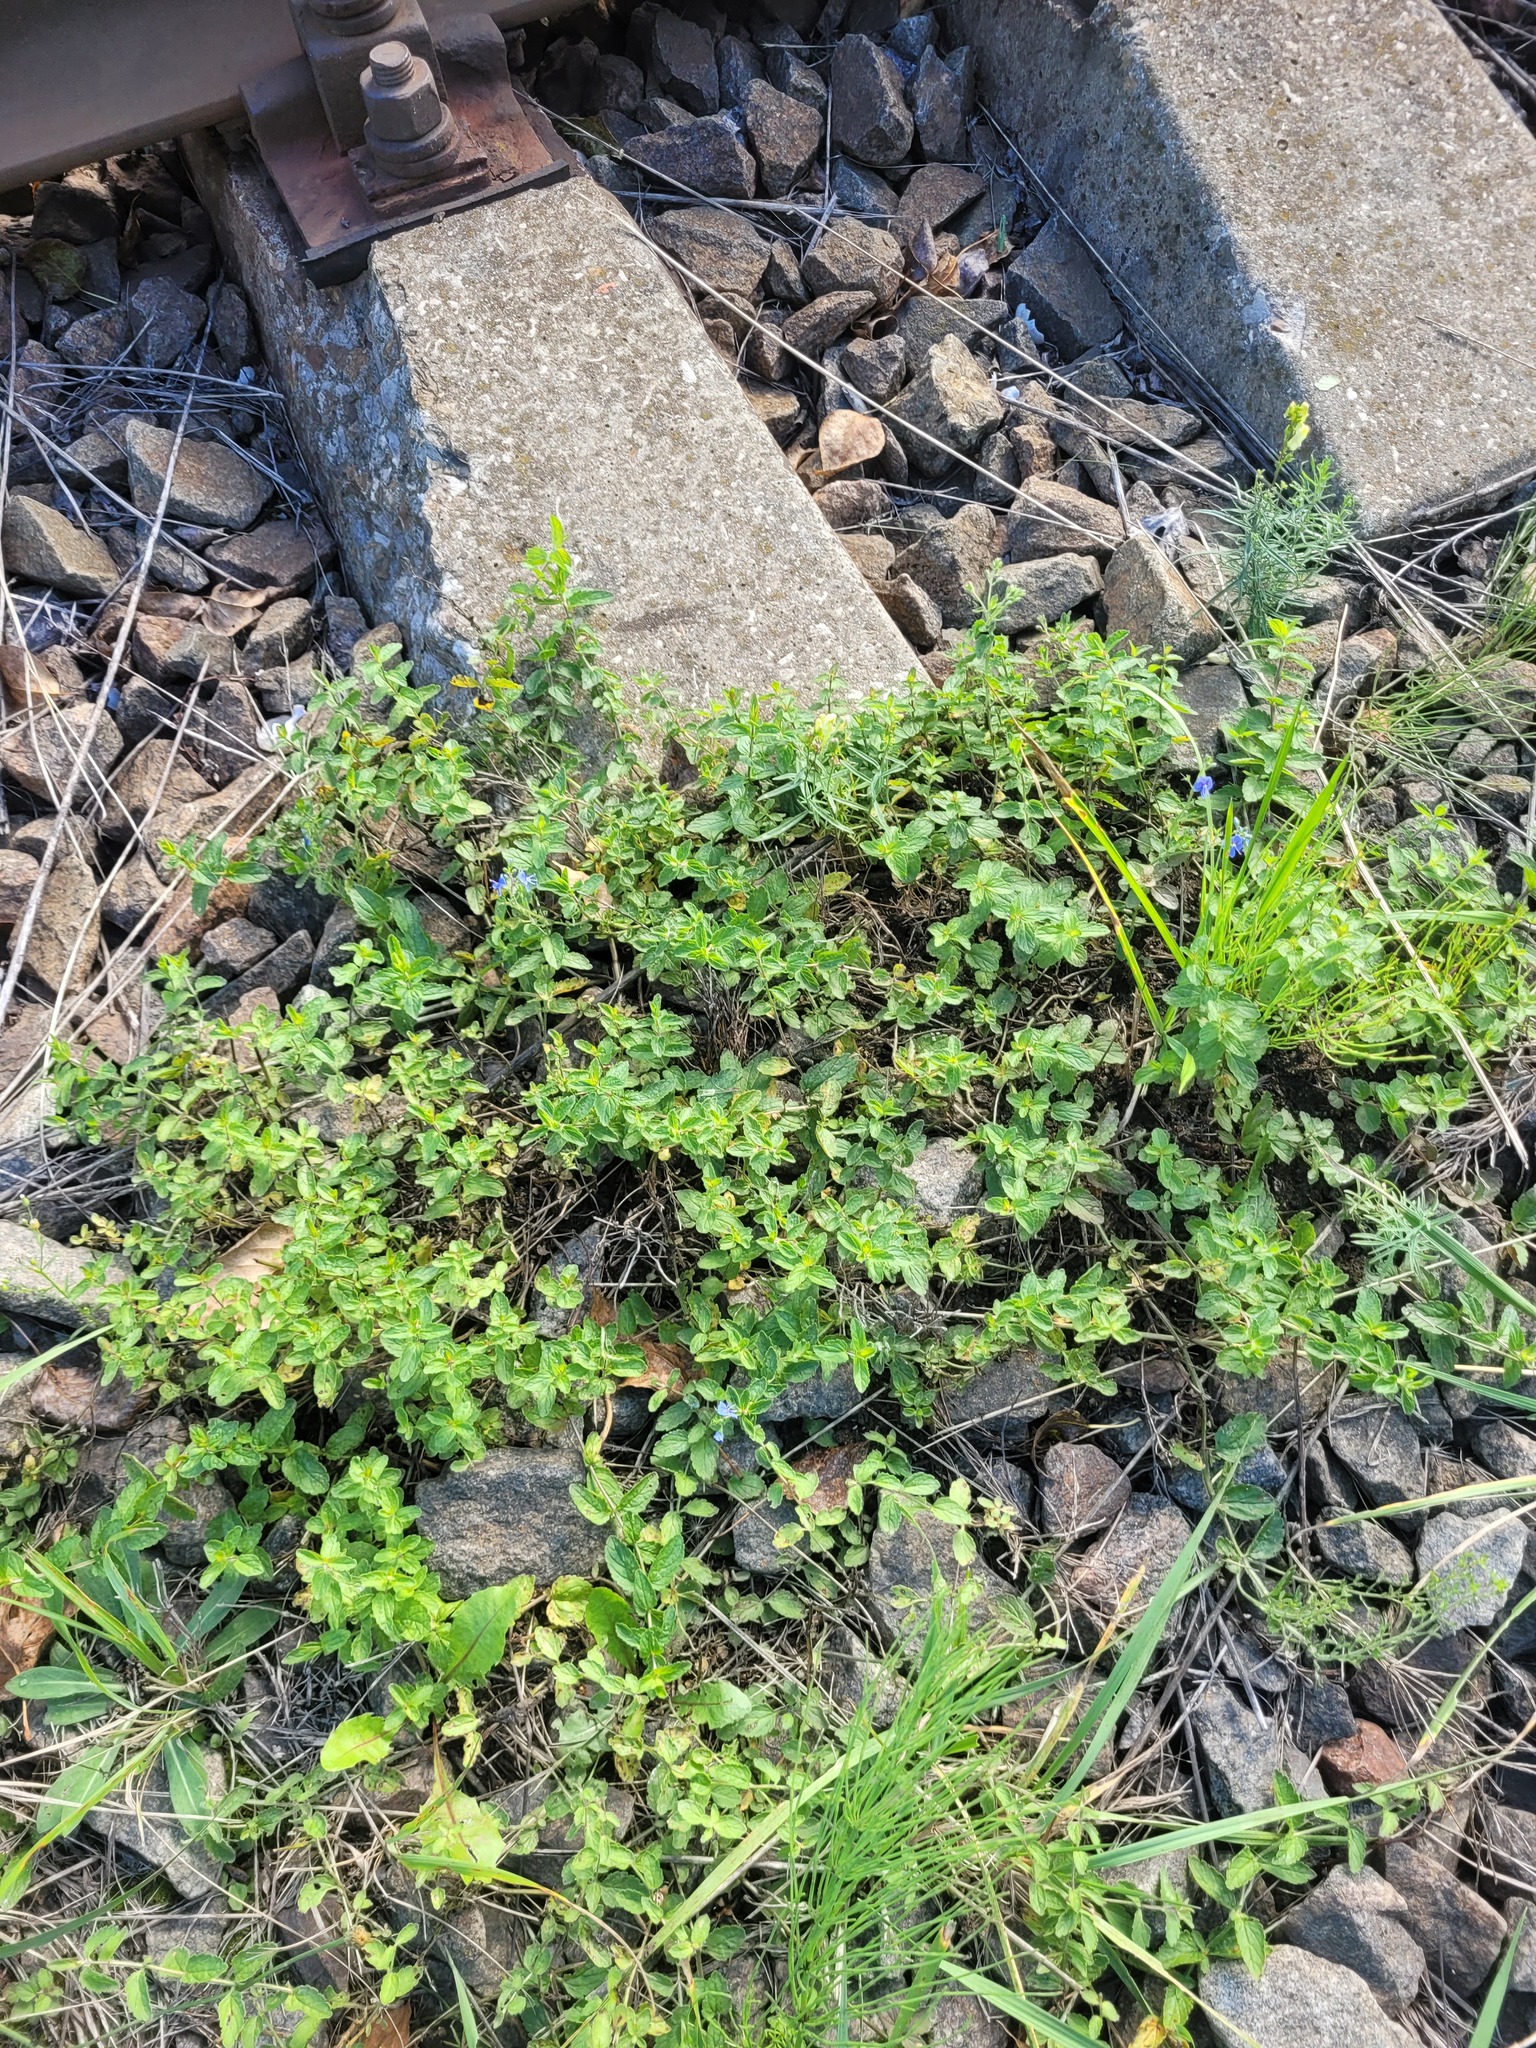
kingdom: Plantae
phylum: Tracheophyta
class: Magnoliopsida
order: Lamiales
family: Plantaginaceae
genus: Veronica
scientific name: Veronica chamaedrys
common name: Germander speedwell
